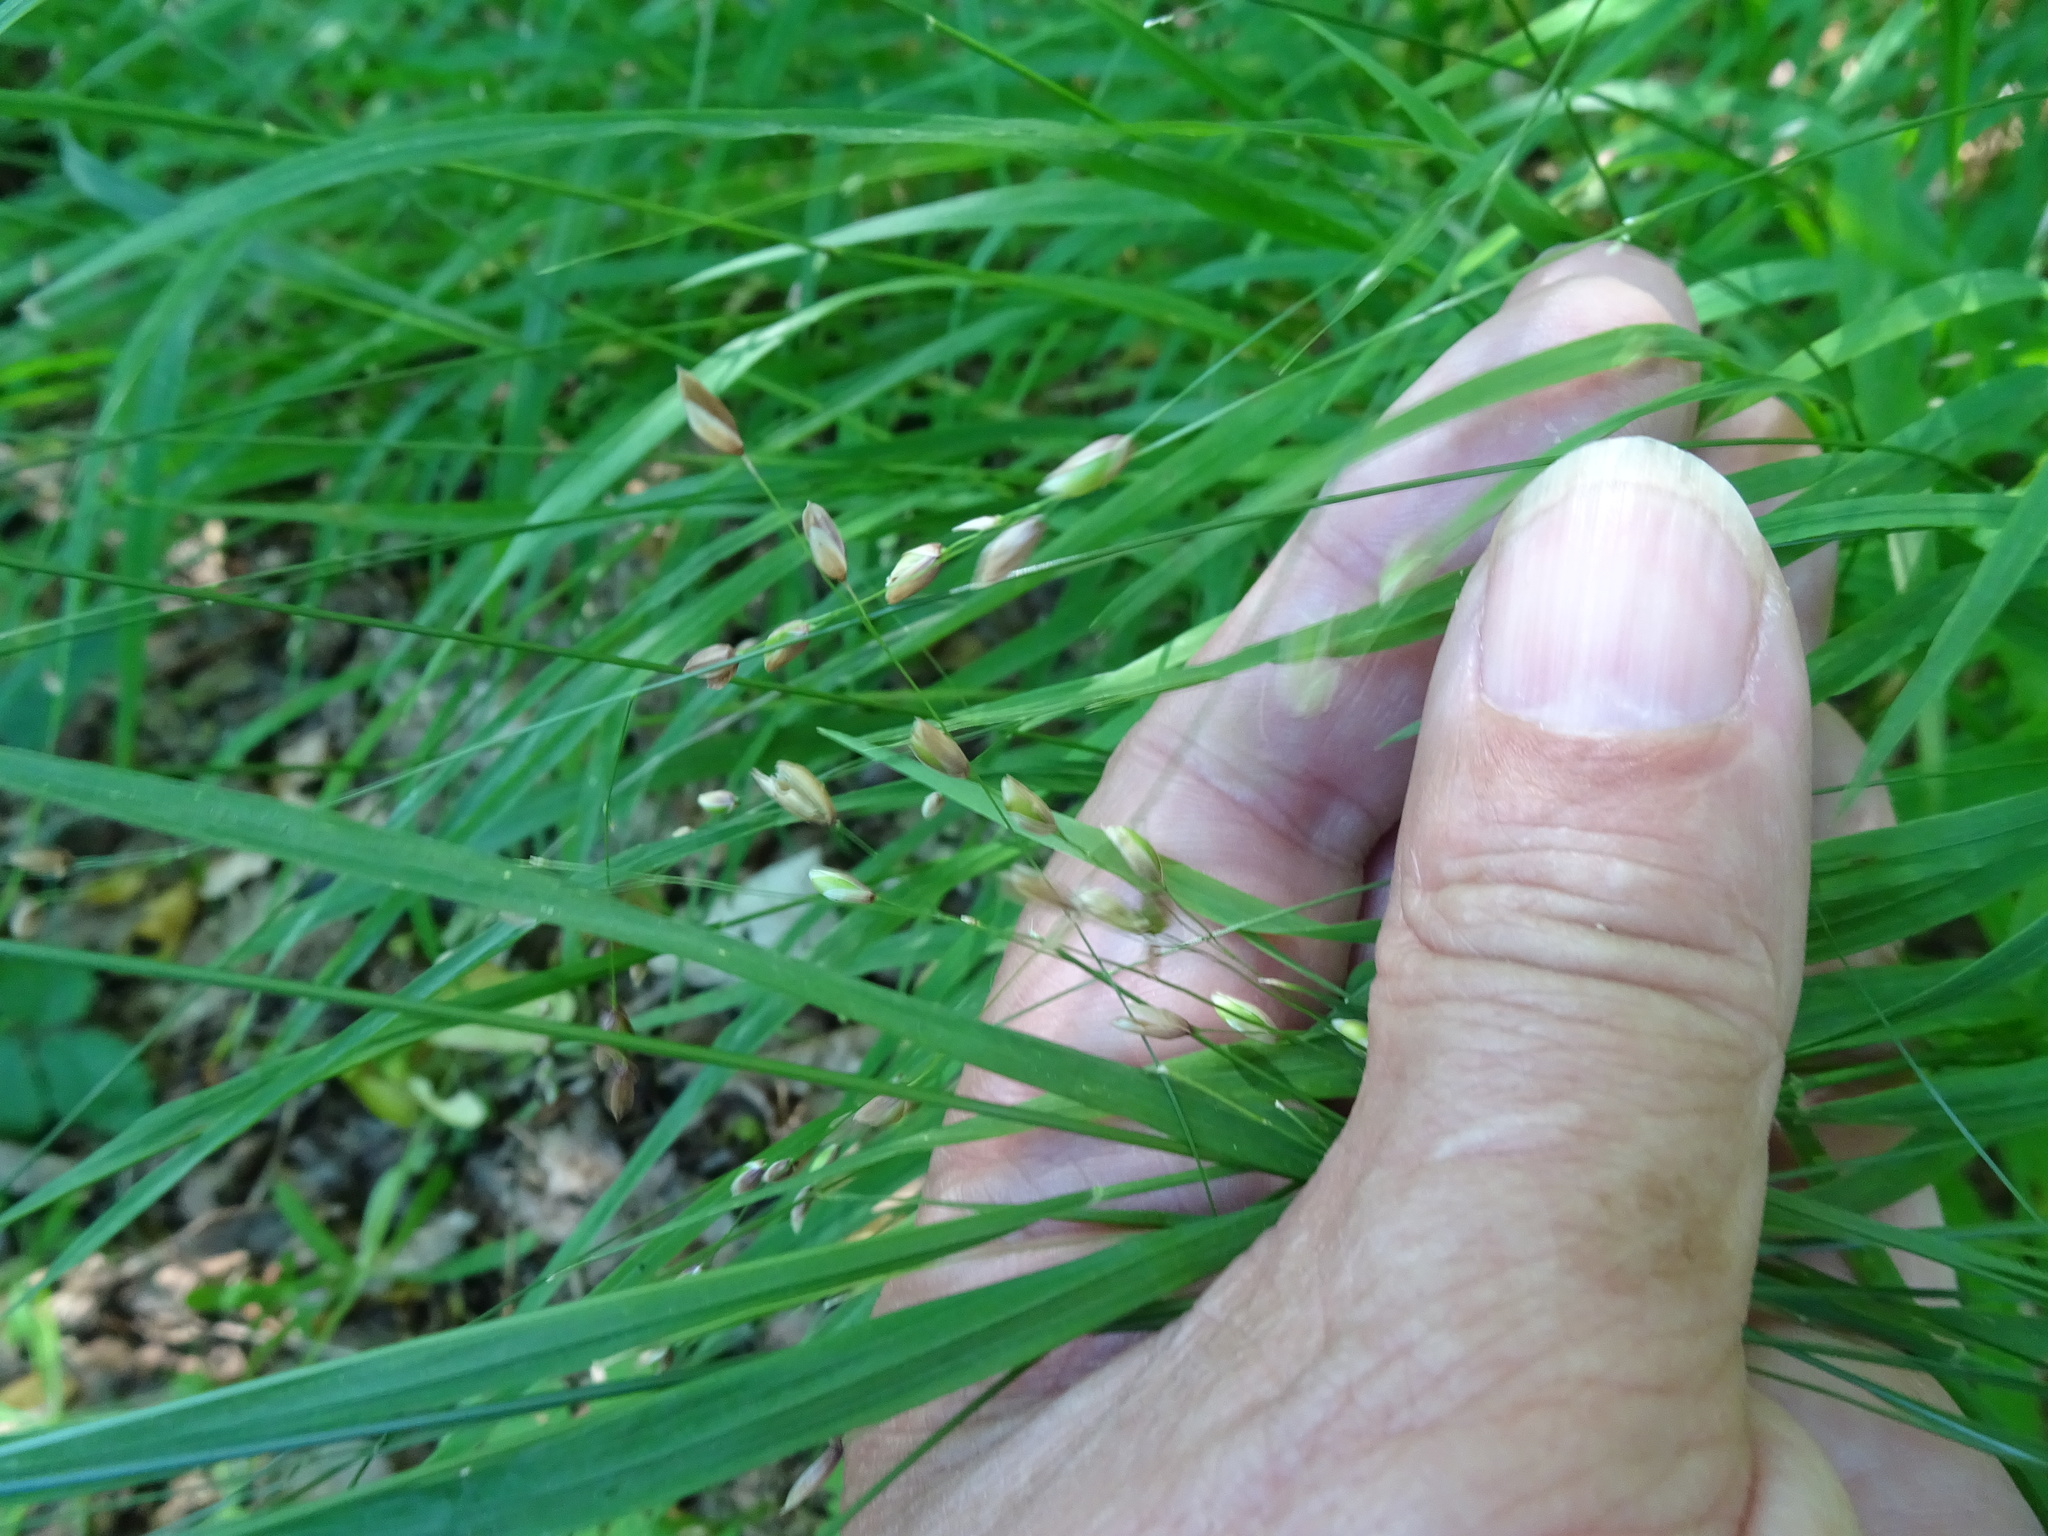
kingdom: Plantae
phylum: Tracheophyta
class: Liliopsida
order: Poales
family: Poaceae
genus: Melica
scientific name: Melica uniflora
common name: Wood melick
